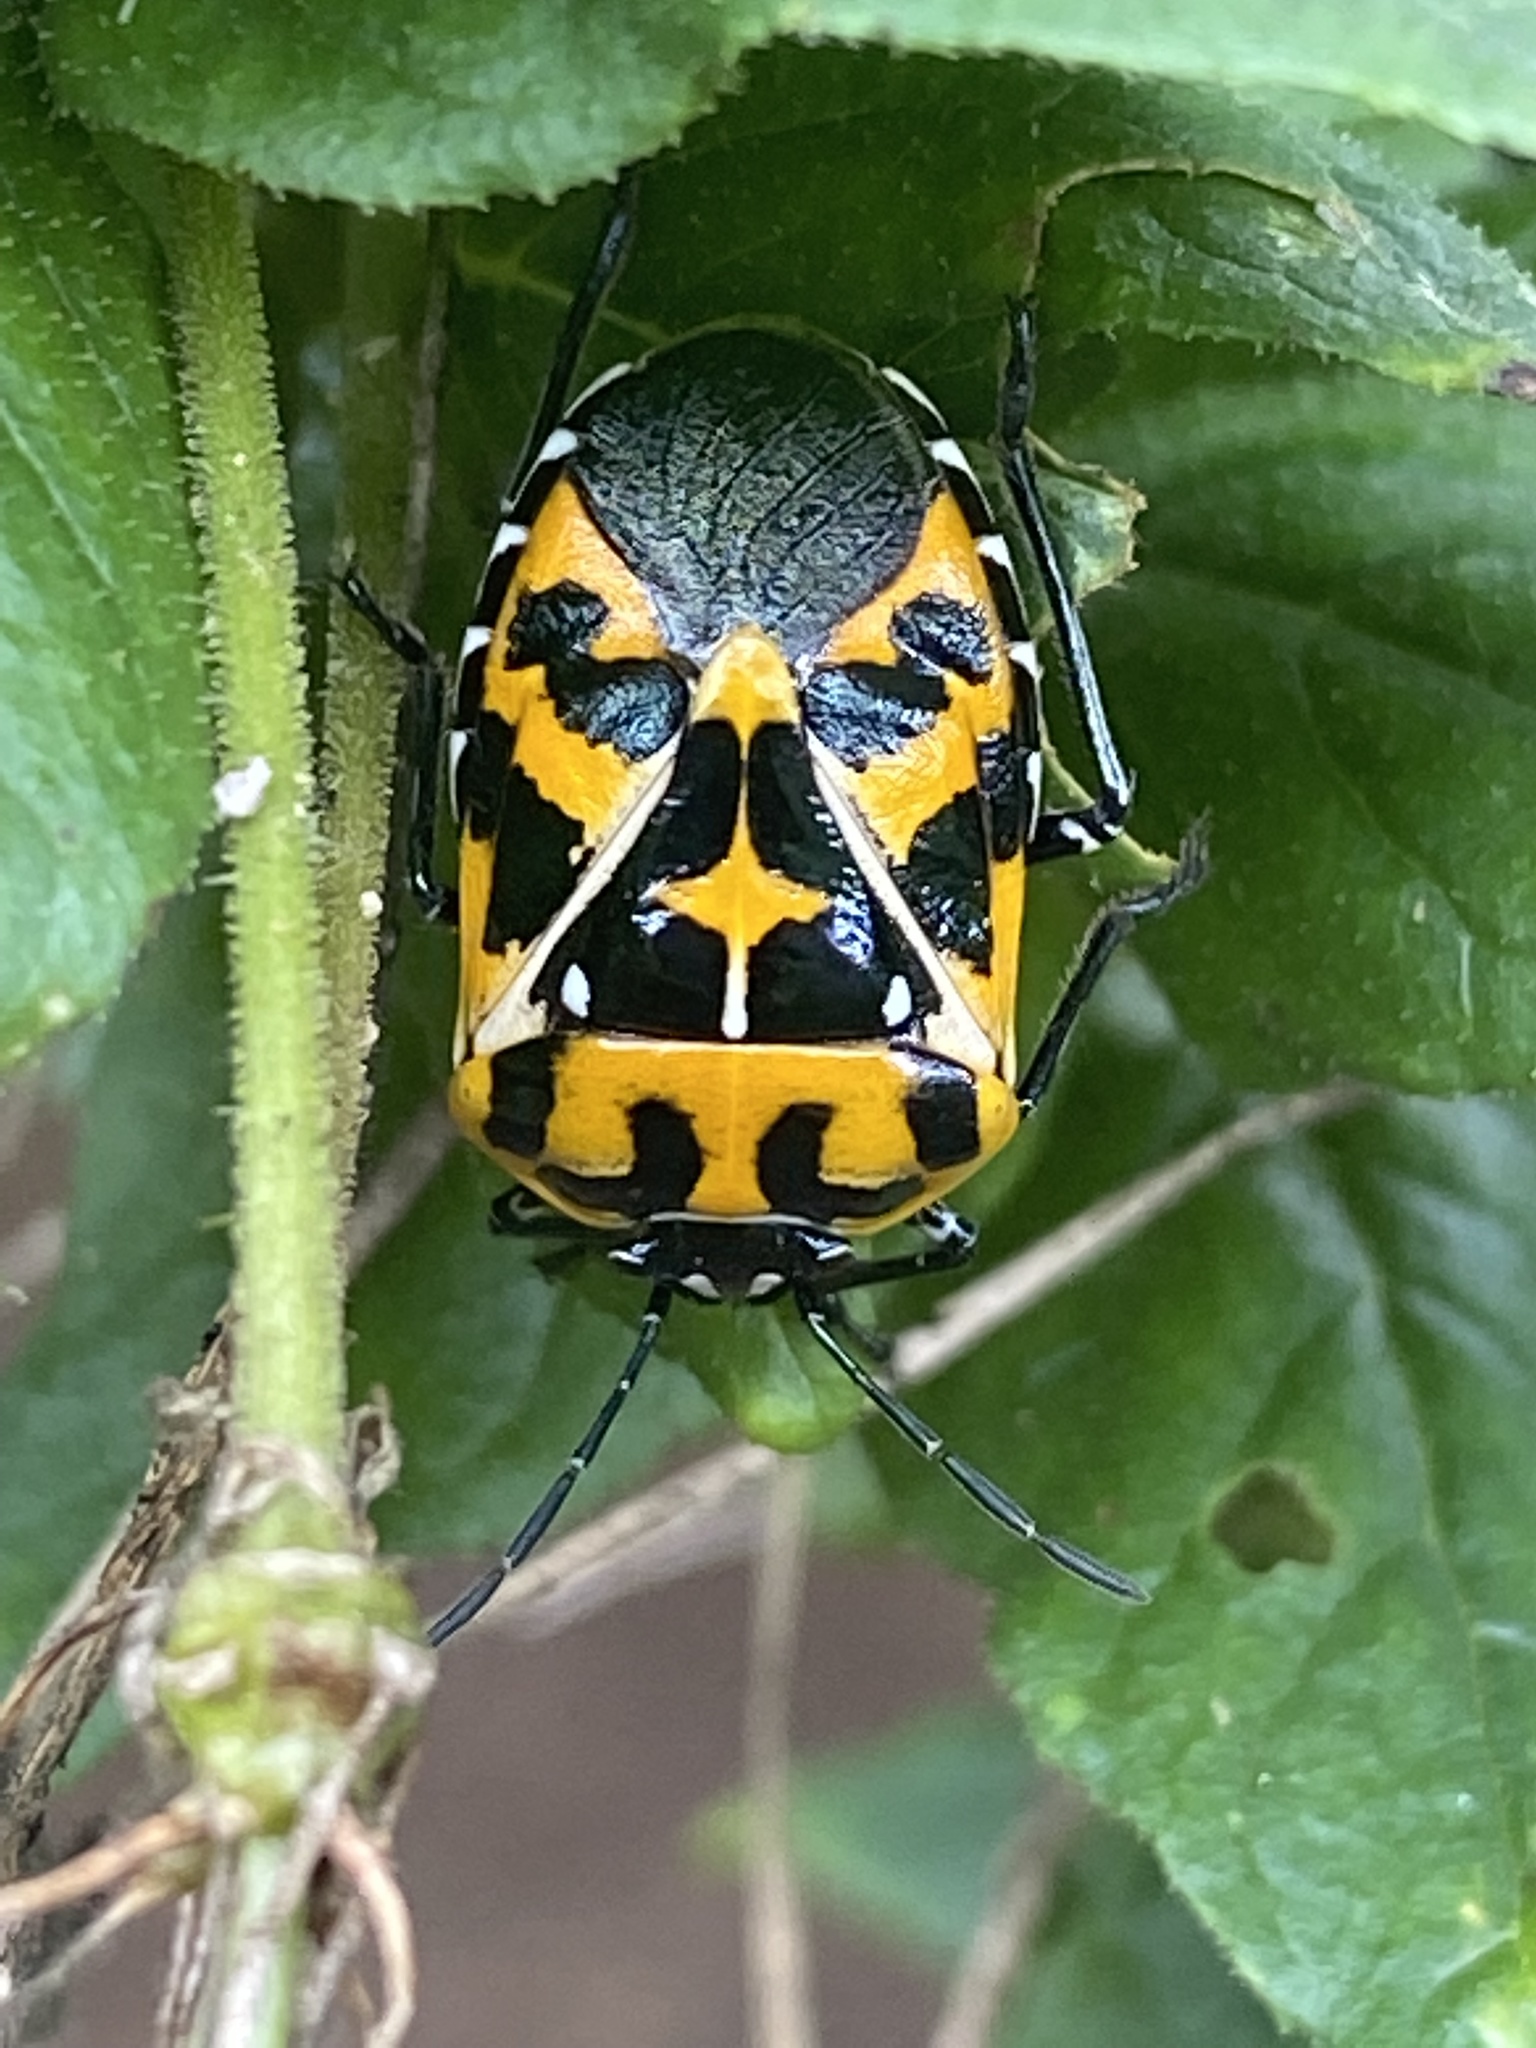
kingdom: Animalia
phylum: Arthropoda
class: Insecta
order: Hemiptera
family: Pentatomidae
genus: Murgantia
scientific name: Murgantia histrionica
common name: Harlequin bug
